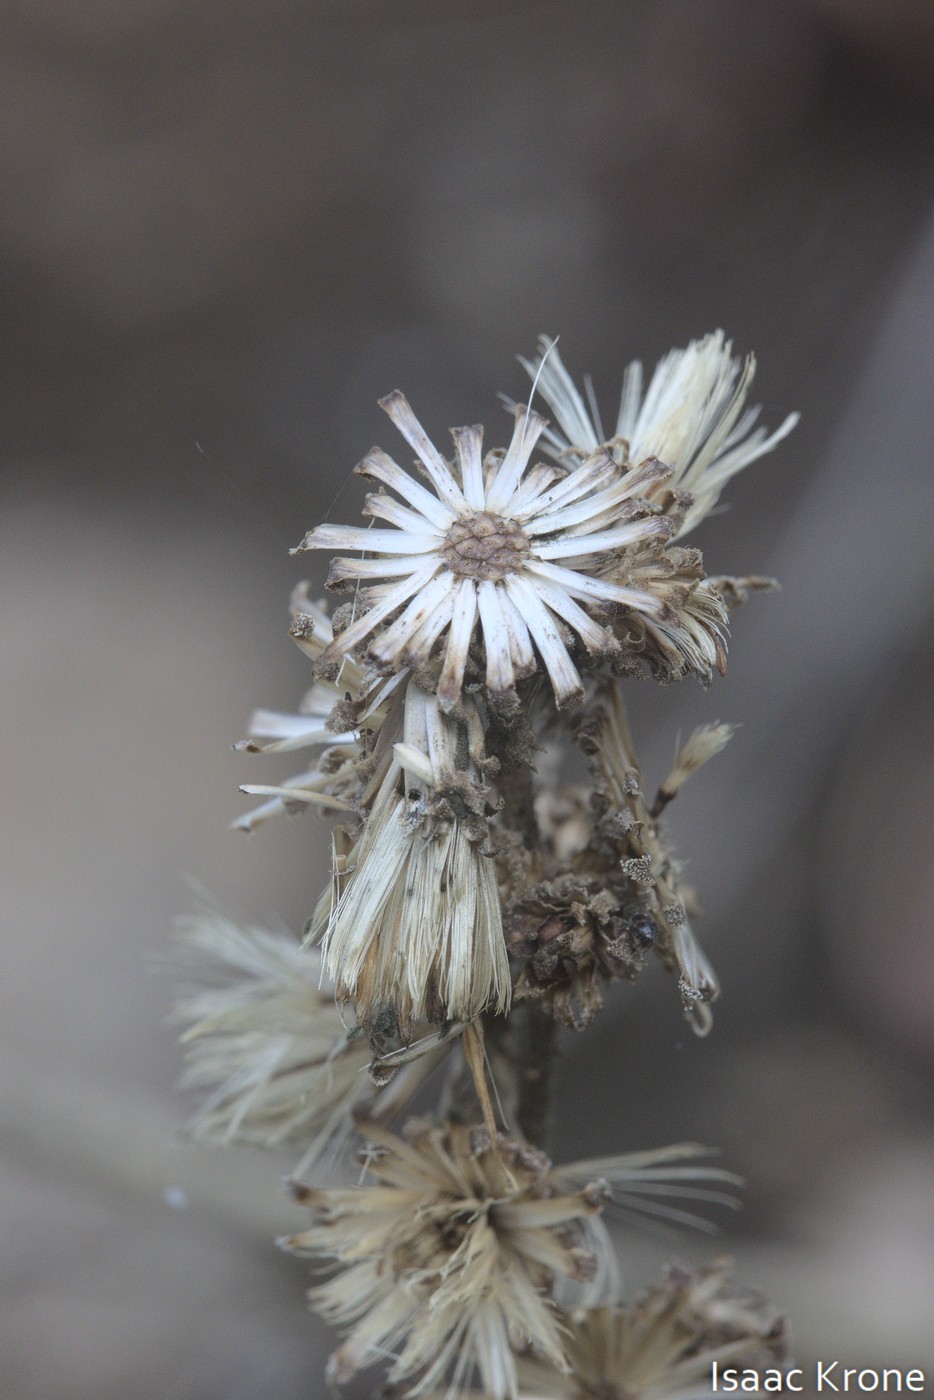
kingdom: Plantae
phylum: Tracheophyta
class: Magnoliopsida
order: Asterales
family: Asteraceae
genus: Hazardia
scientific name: Hazardia squarrosa
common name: Saw-tooth goldenbush
